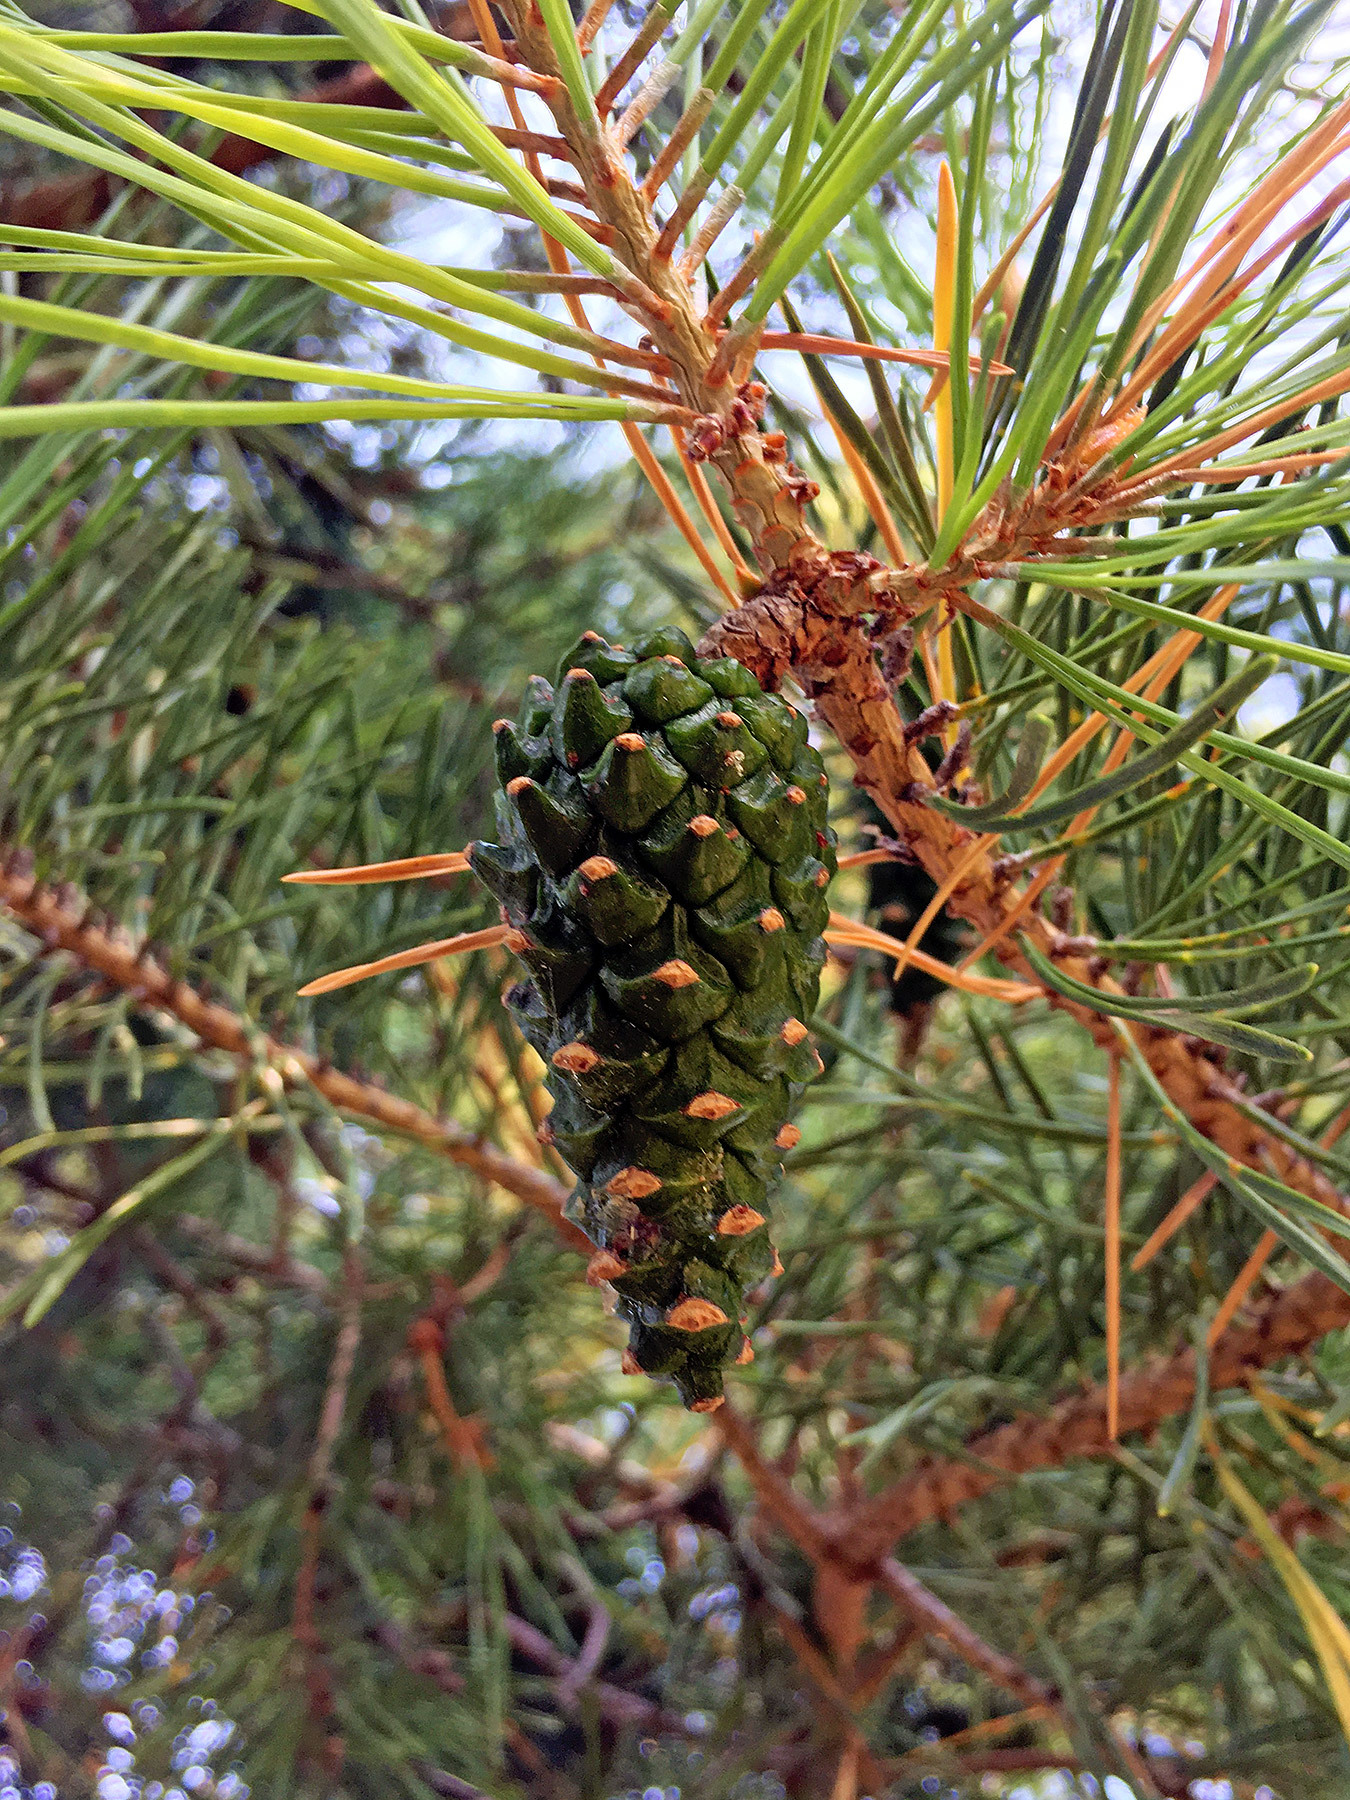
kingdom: Plantae
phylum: Tracheophyta
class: Pinopsida
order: Pinales
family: Pinaceae
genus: Pinus
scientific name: Pinus sylvestris
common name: Scots pine
